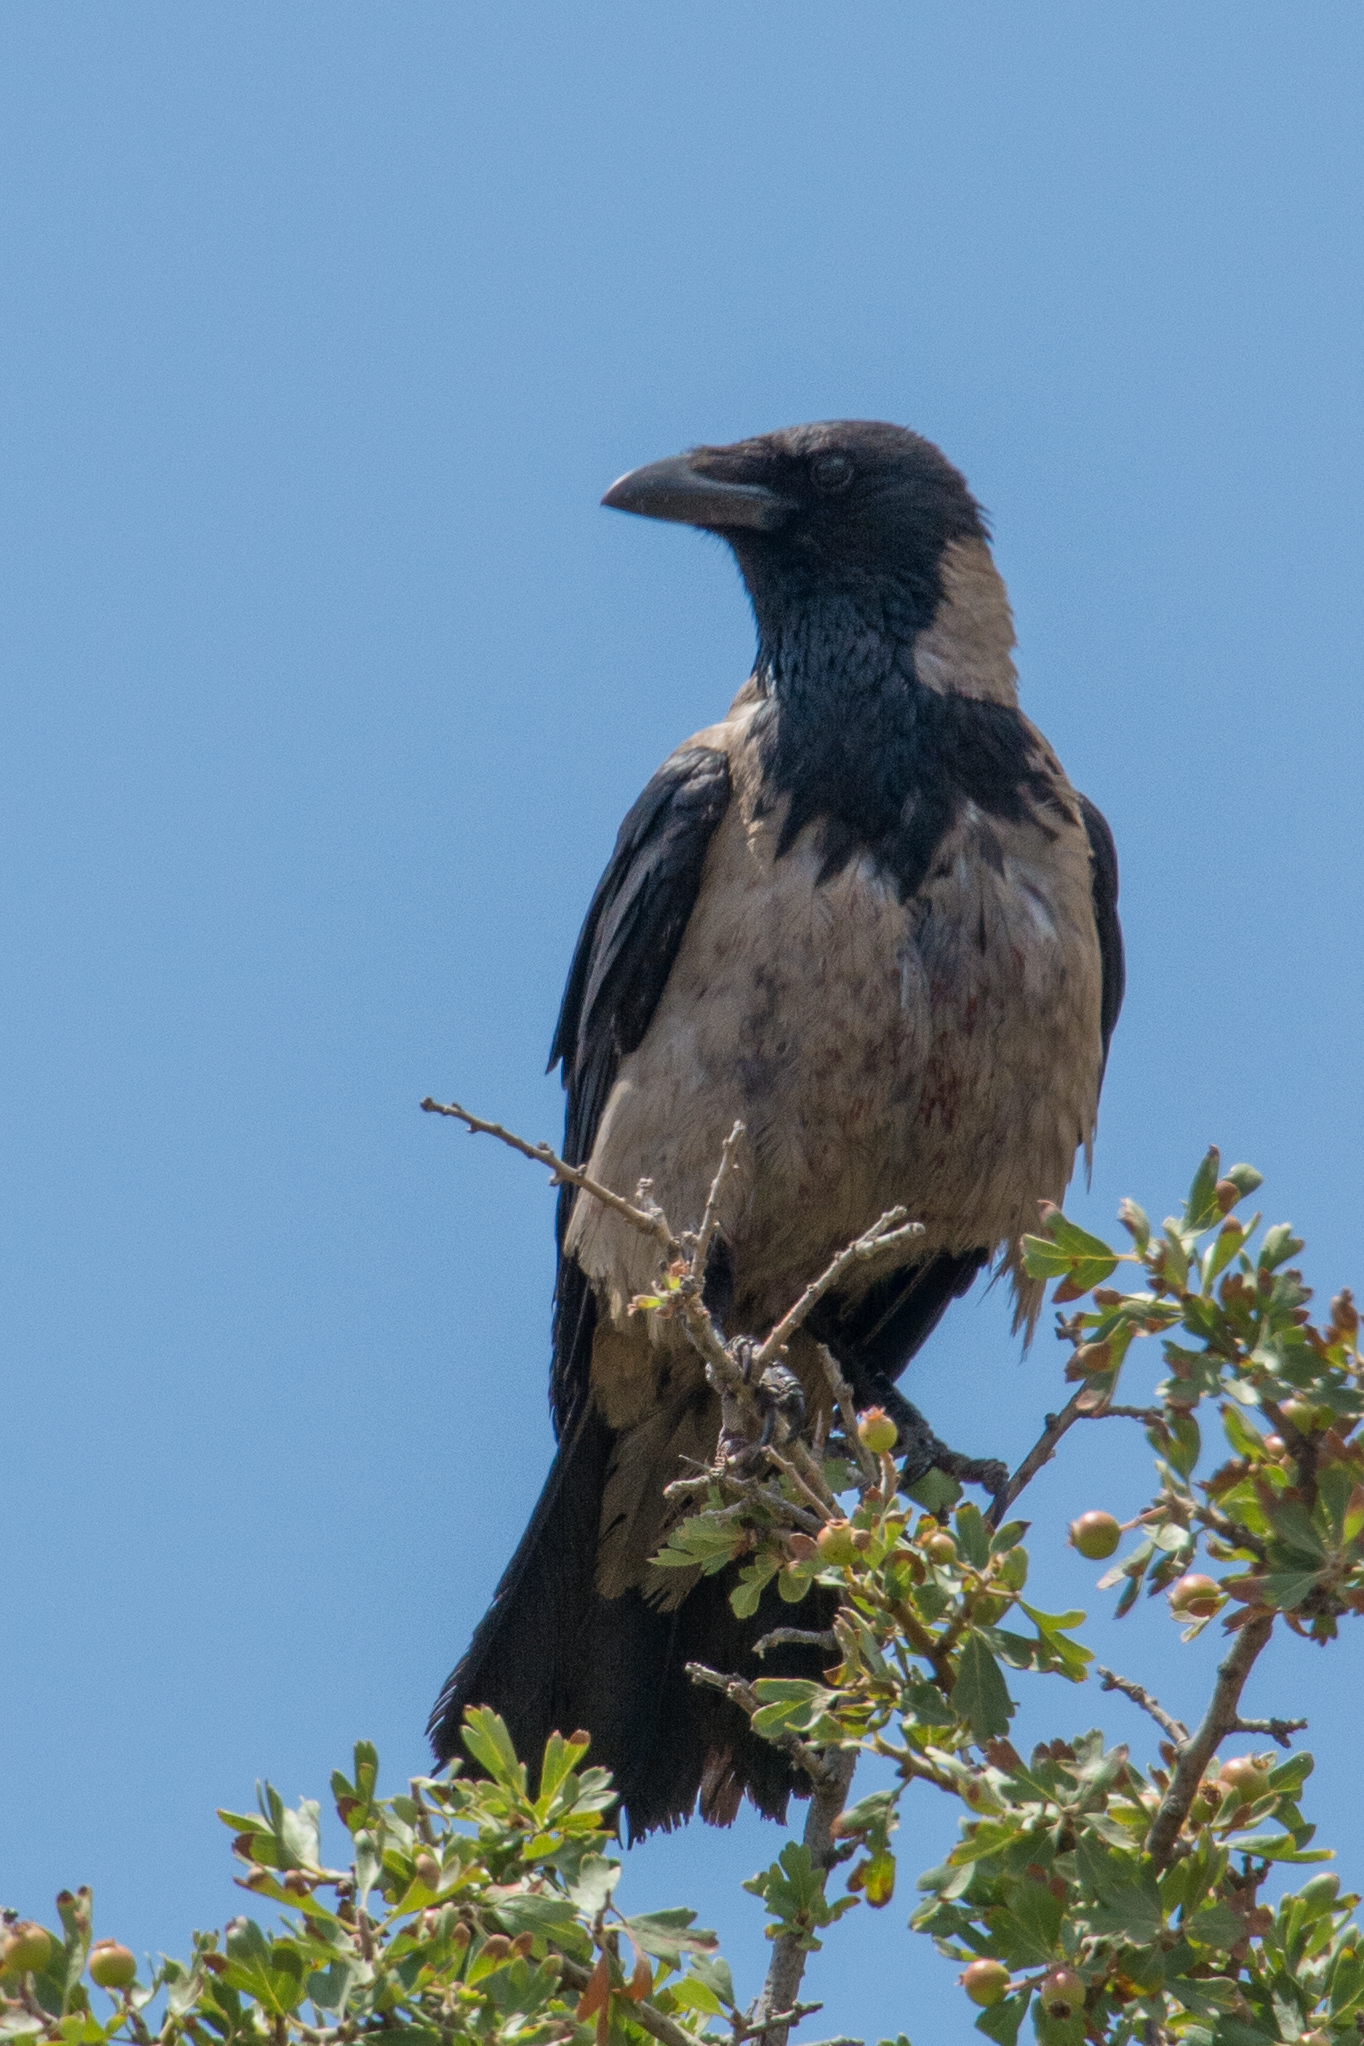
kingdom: Animalia
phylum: Chordata
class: Aves
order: Passeriformes
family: Corvidae
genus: Corvus
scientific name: Corvus cornix
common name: Hooded crow
